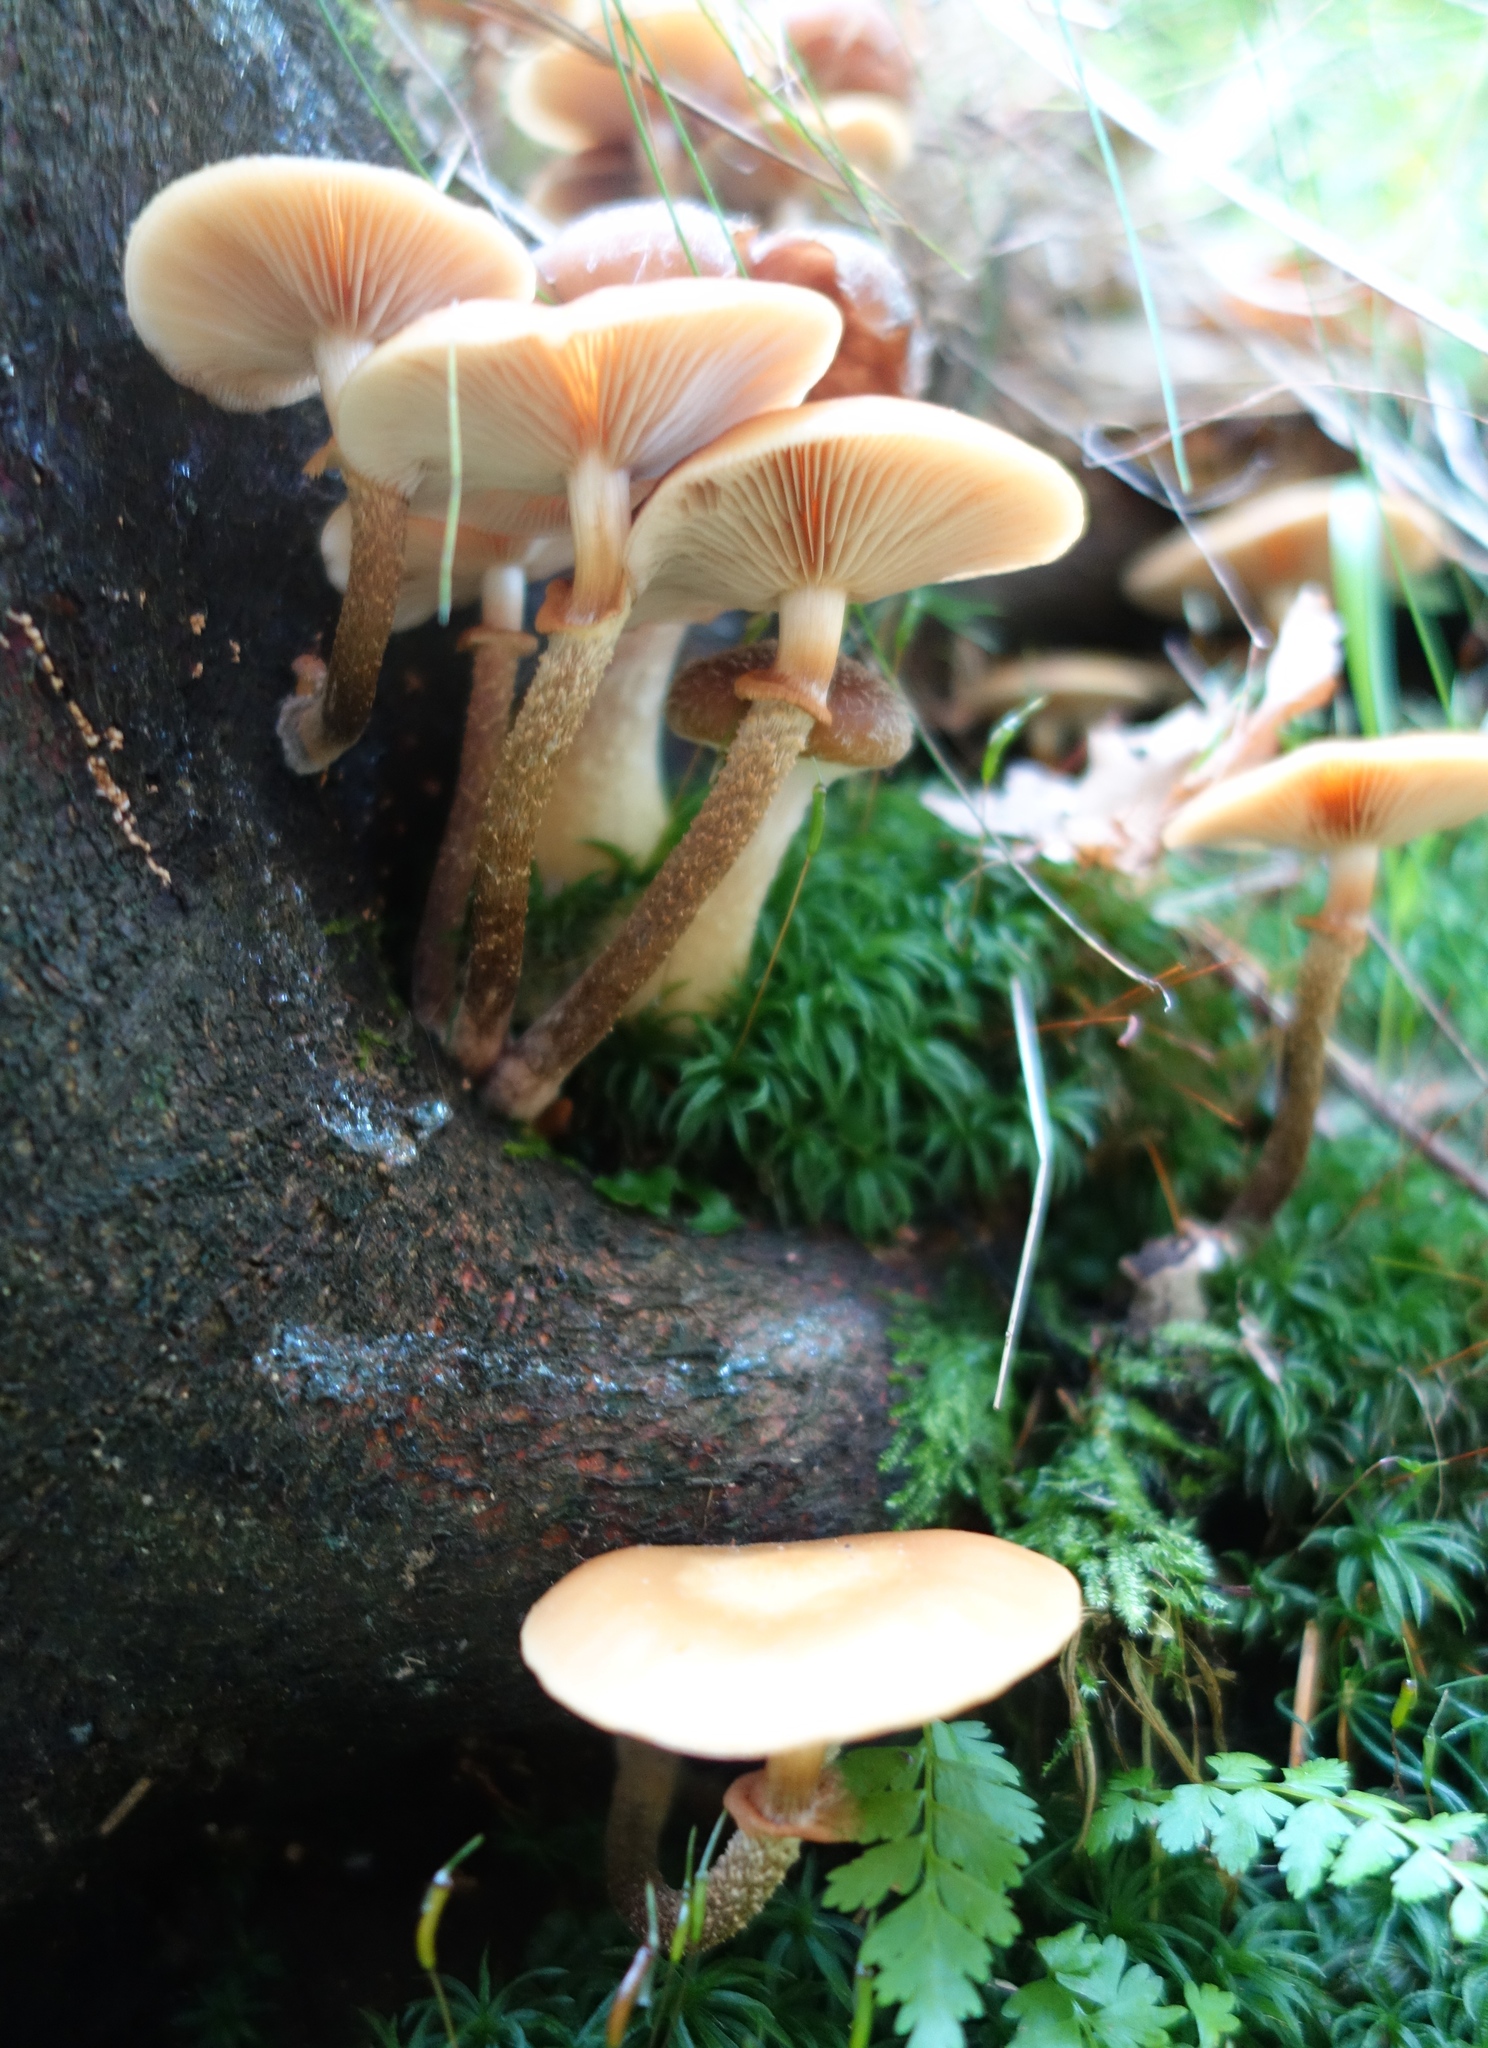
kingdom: Fungi
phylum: Basidiomycota
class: Agaricomycetes
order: Agaricales
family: Strophariaceae
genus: Kuehneromyces
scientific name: Kuehneromyces mutabilis
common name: Sheathed woodtuft
